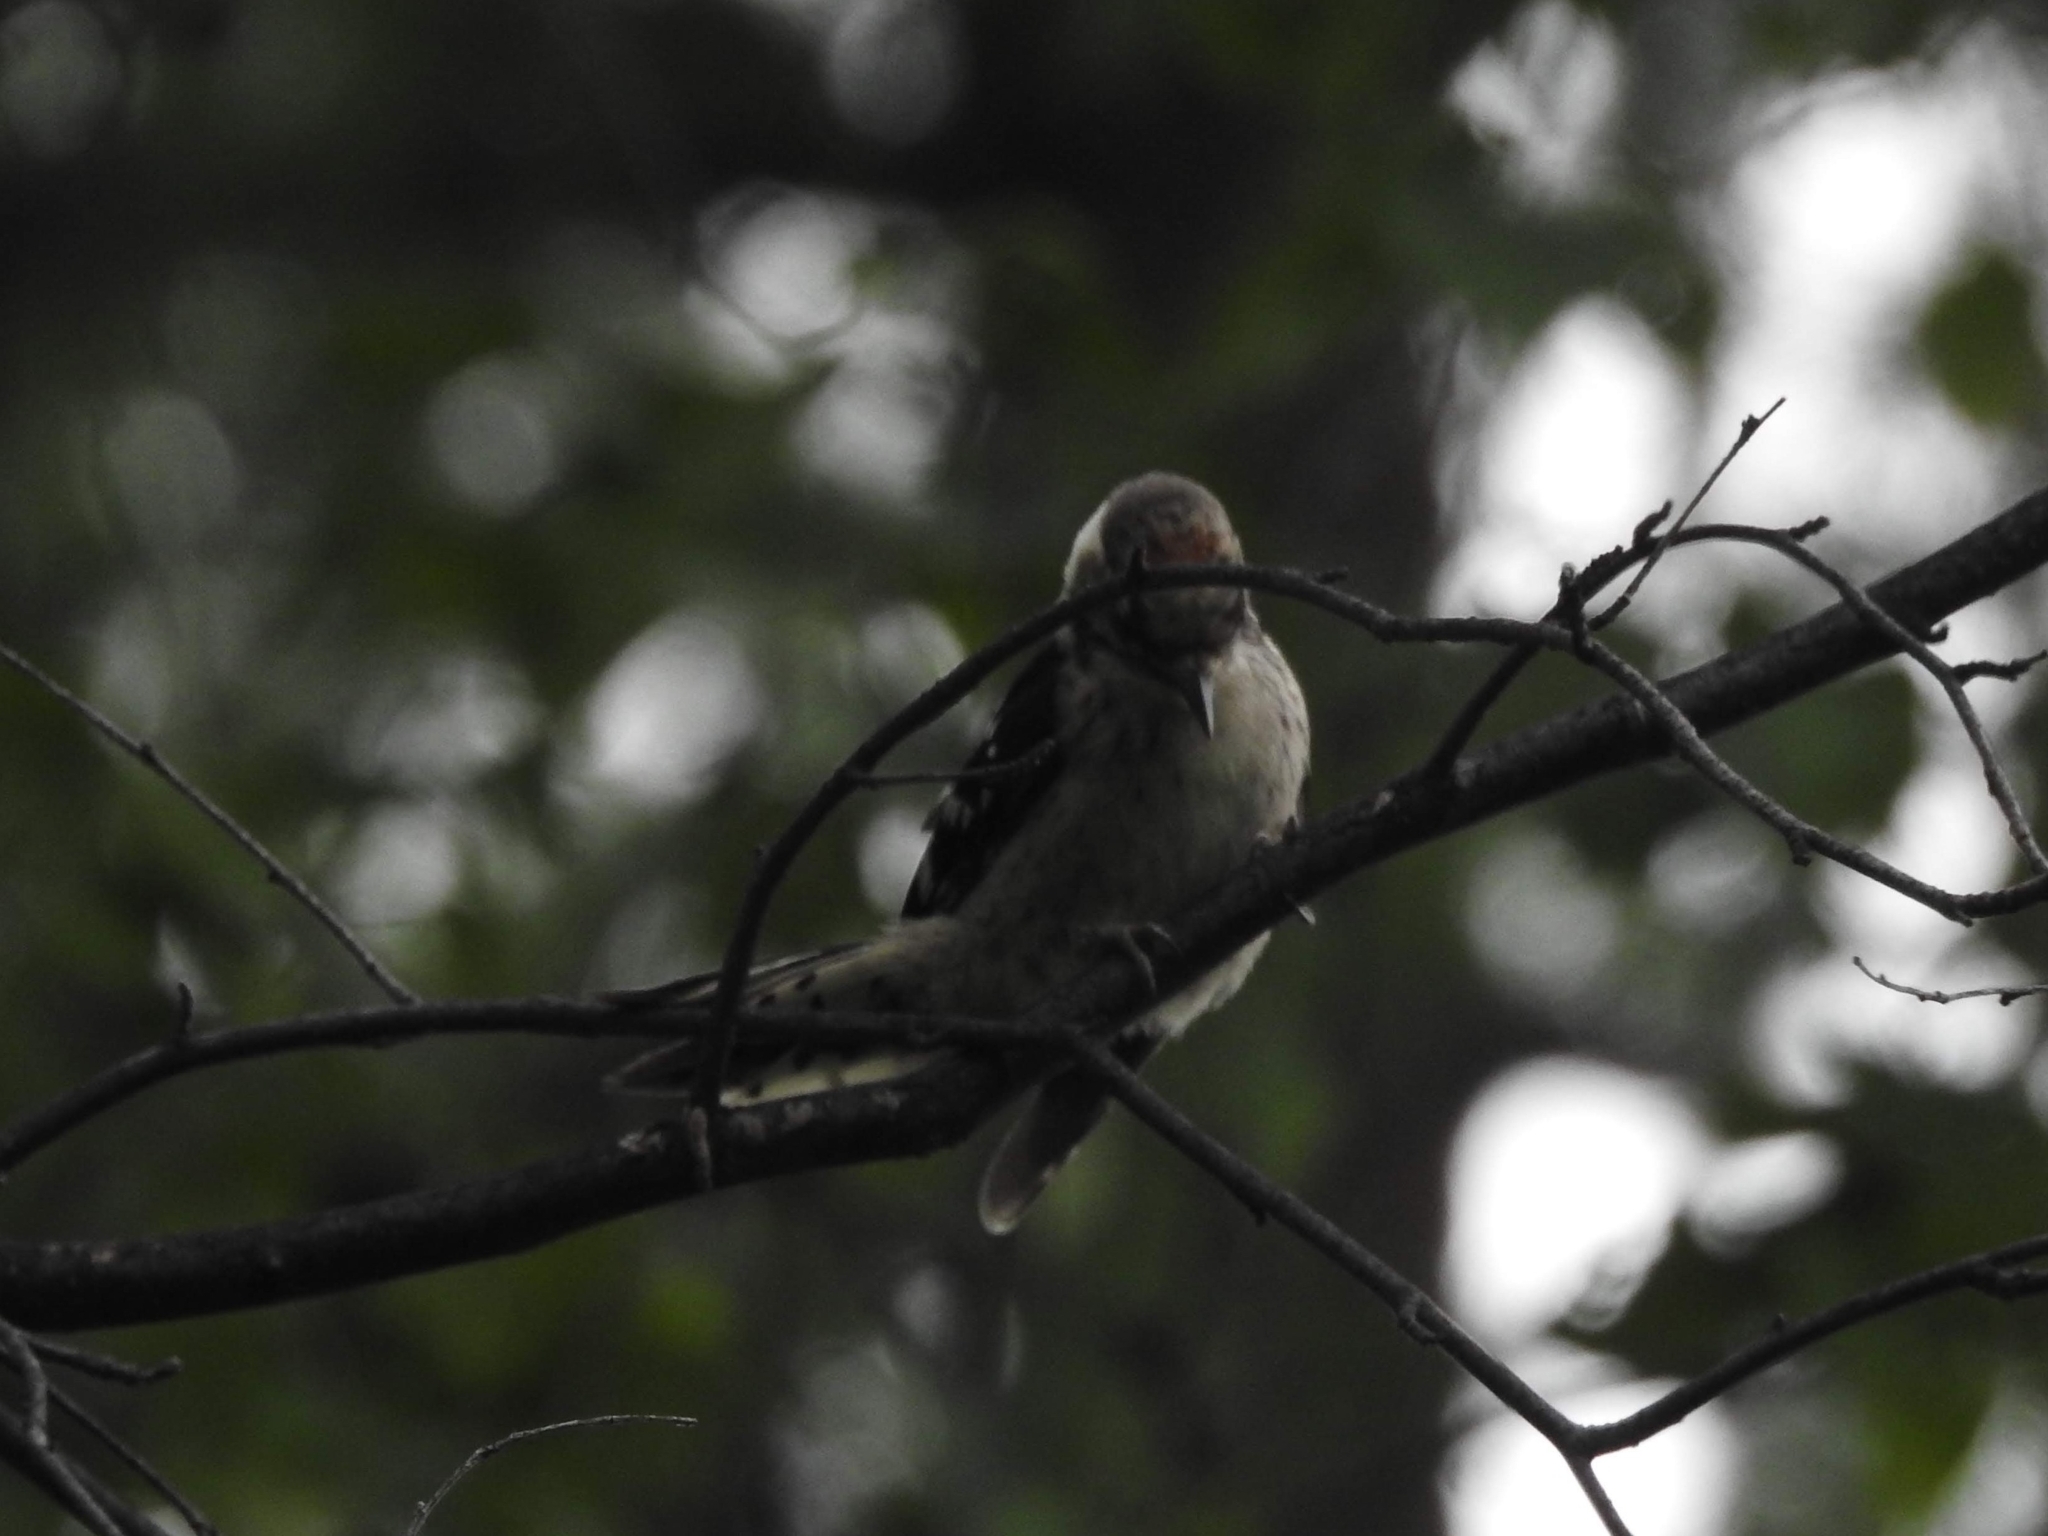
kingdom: Animalia
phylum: Chordata
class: Aves
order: Piciformes
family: Picidae
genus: Dryobates
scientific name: Dryobates minor
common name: Lesser spotted woodpecker
